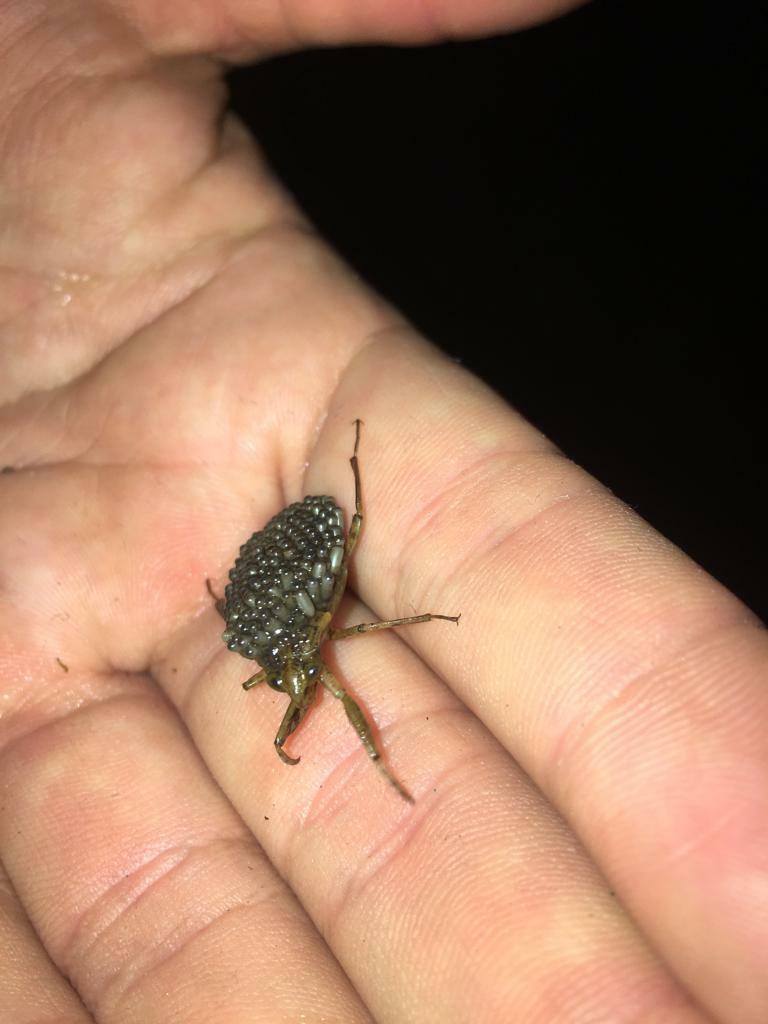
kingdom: Animalia
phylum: Arthropoda
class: Insecta
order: Hemiptera
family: Belostomatidae
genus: Belostoma
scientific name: Belostoma
